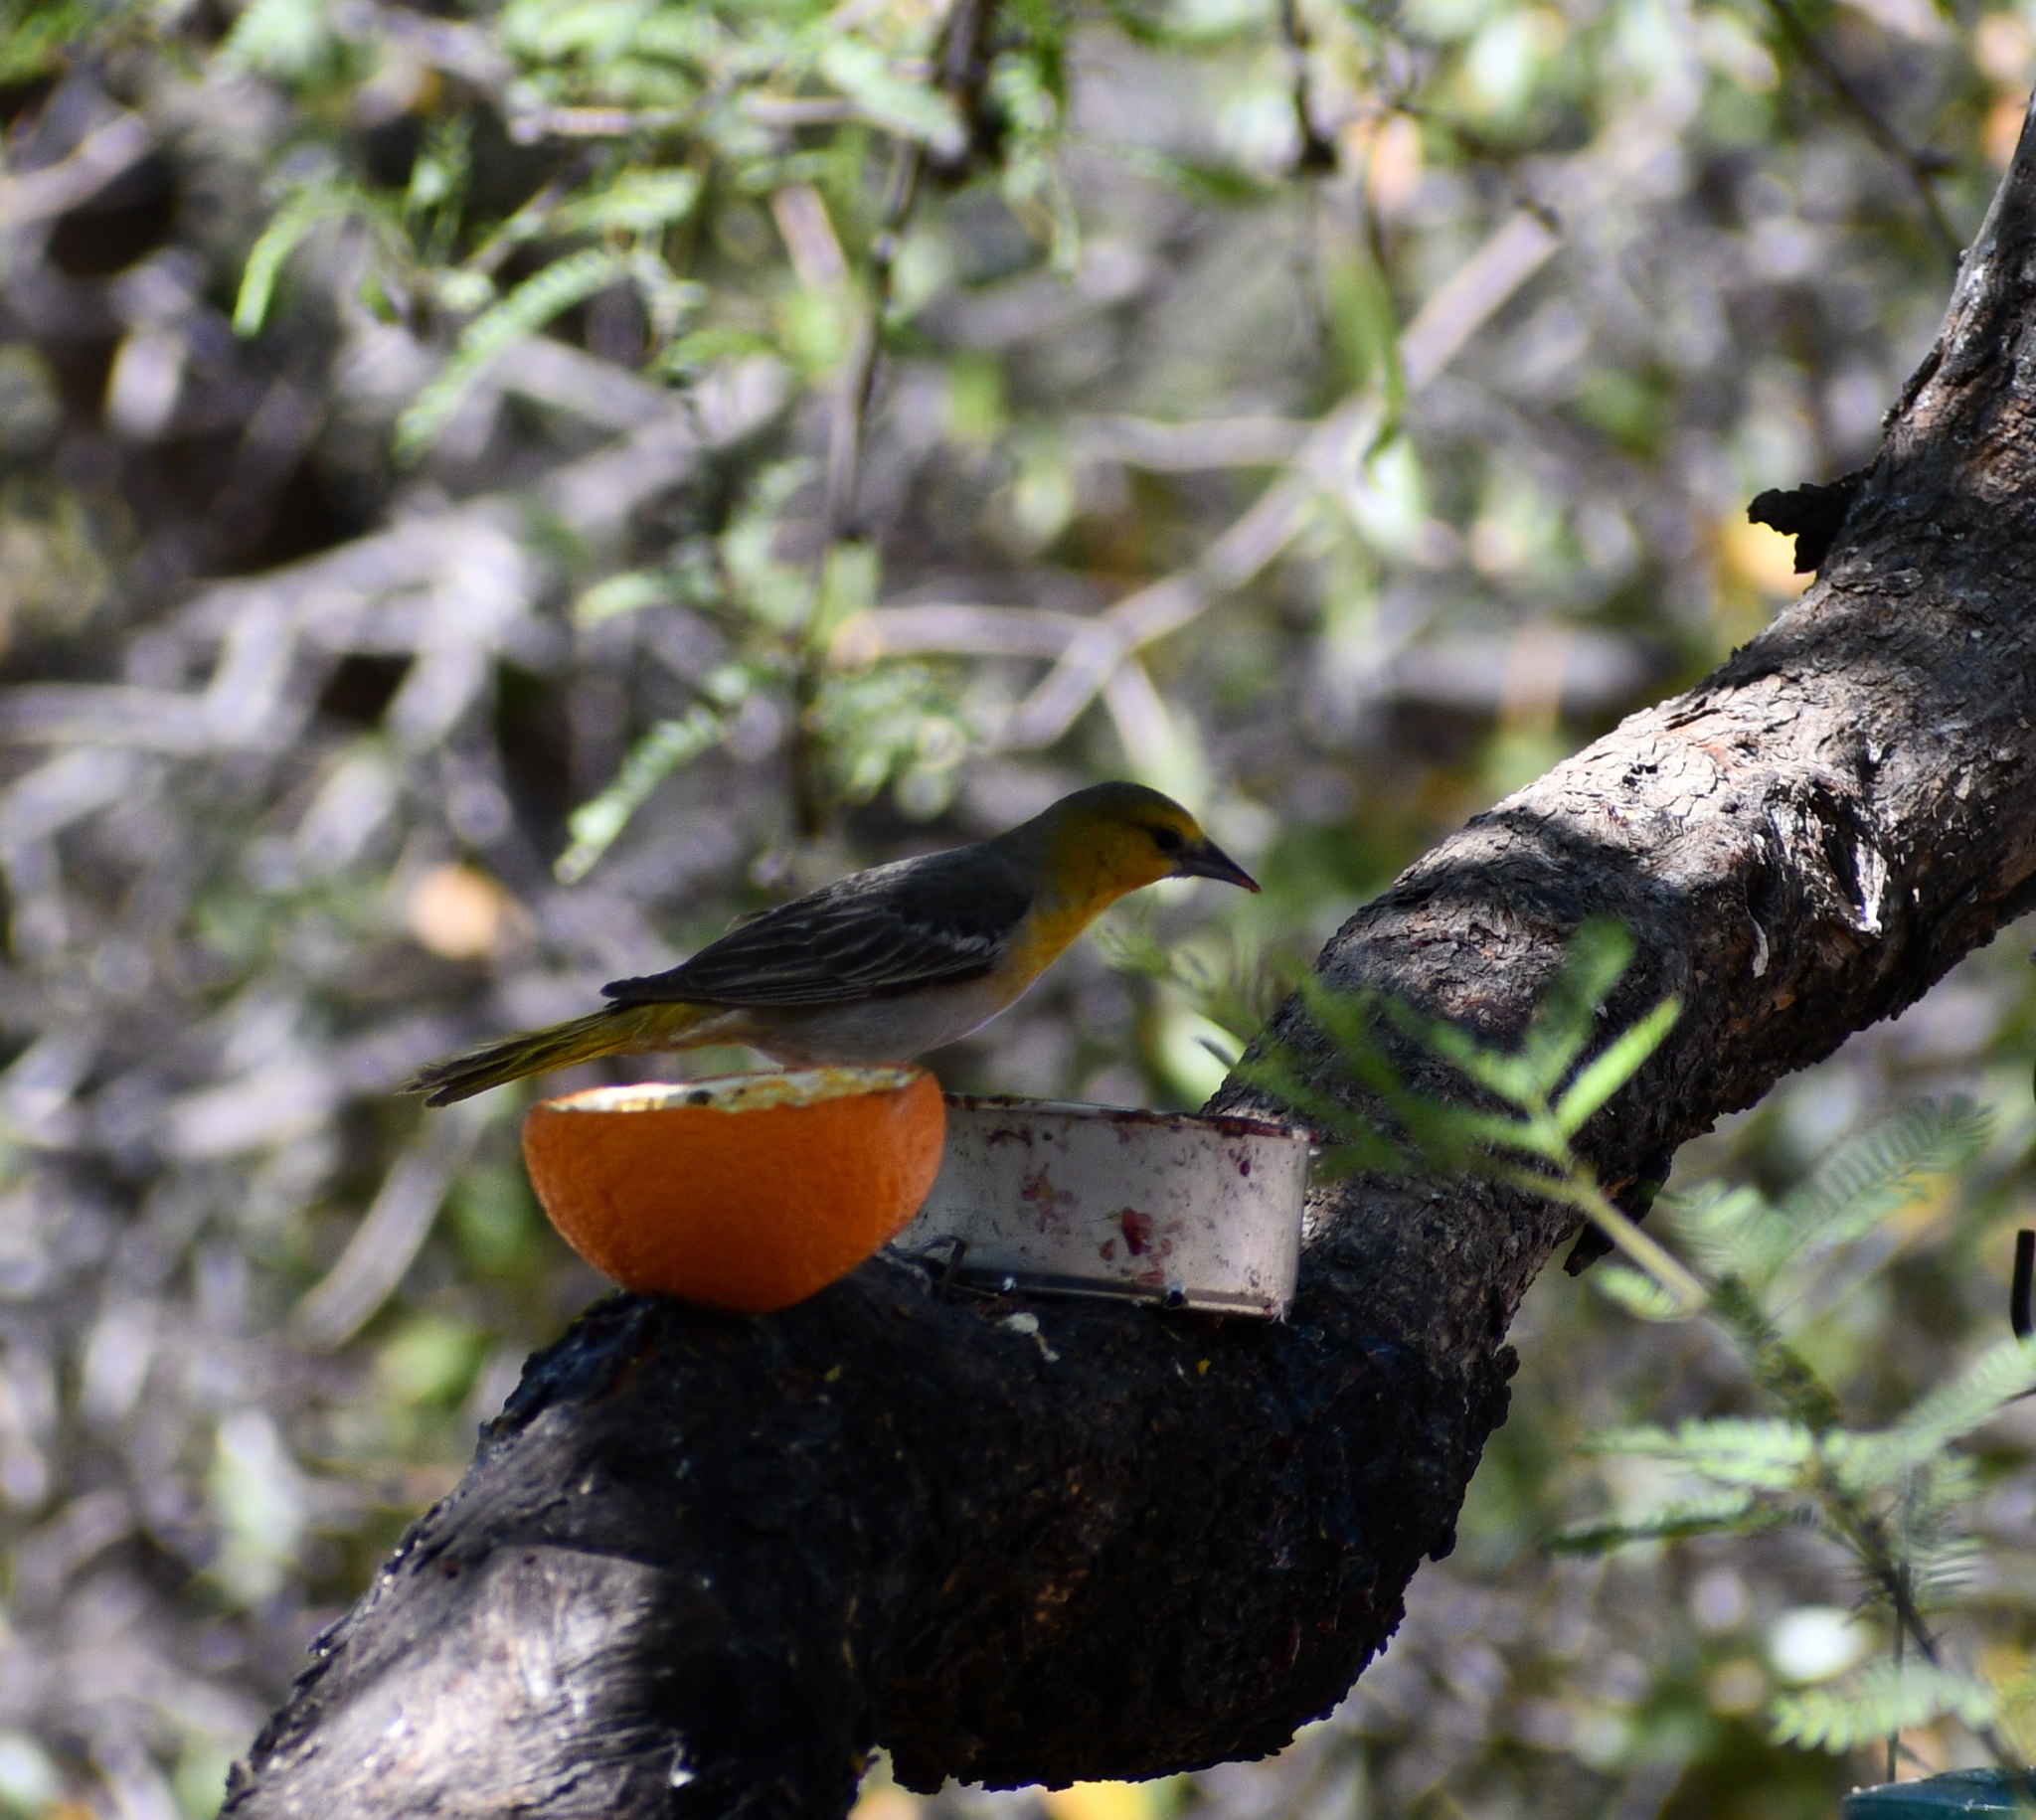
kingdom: Animalia
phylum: Chordata
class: Aves
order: Passeriformes
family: Icteridae
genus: Icterus
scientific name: Icterus bullockii
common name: Bullock's oriole
